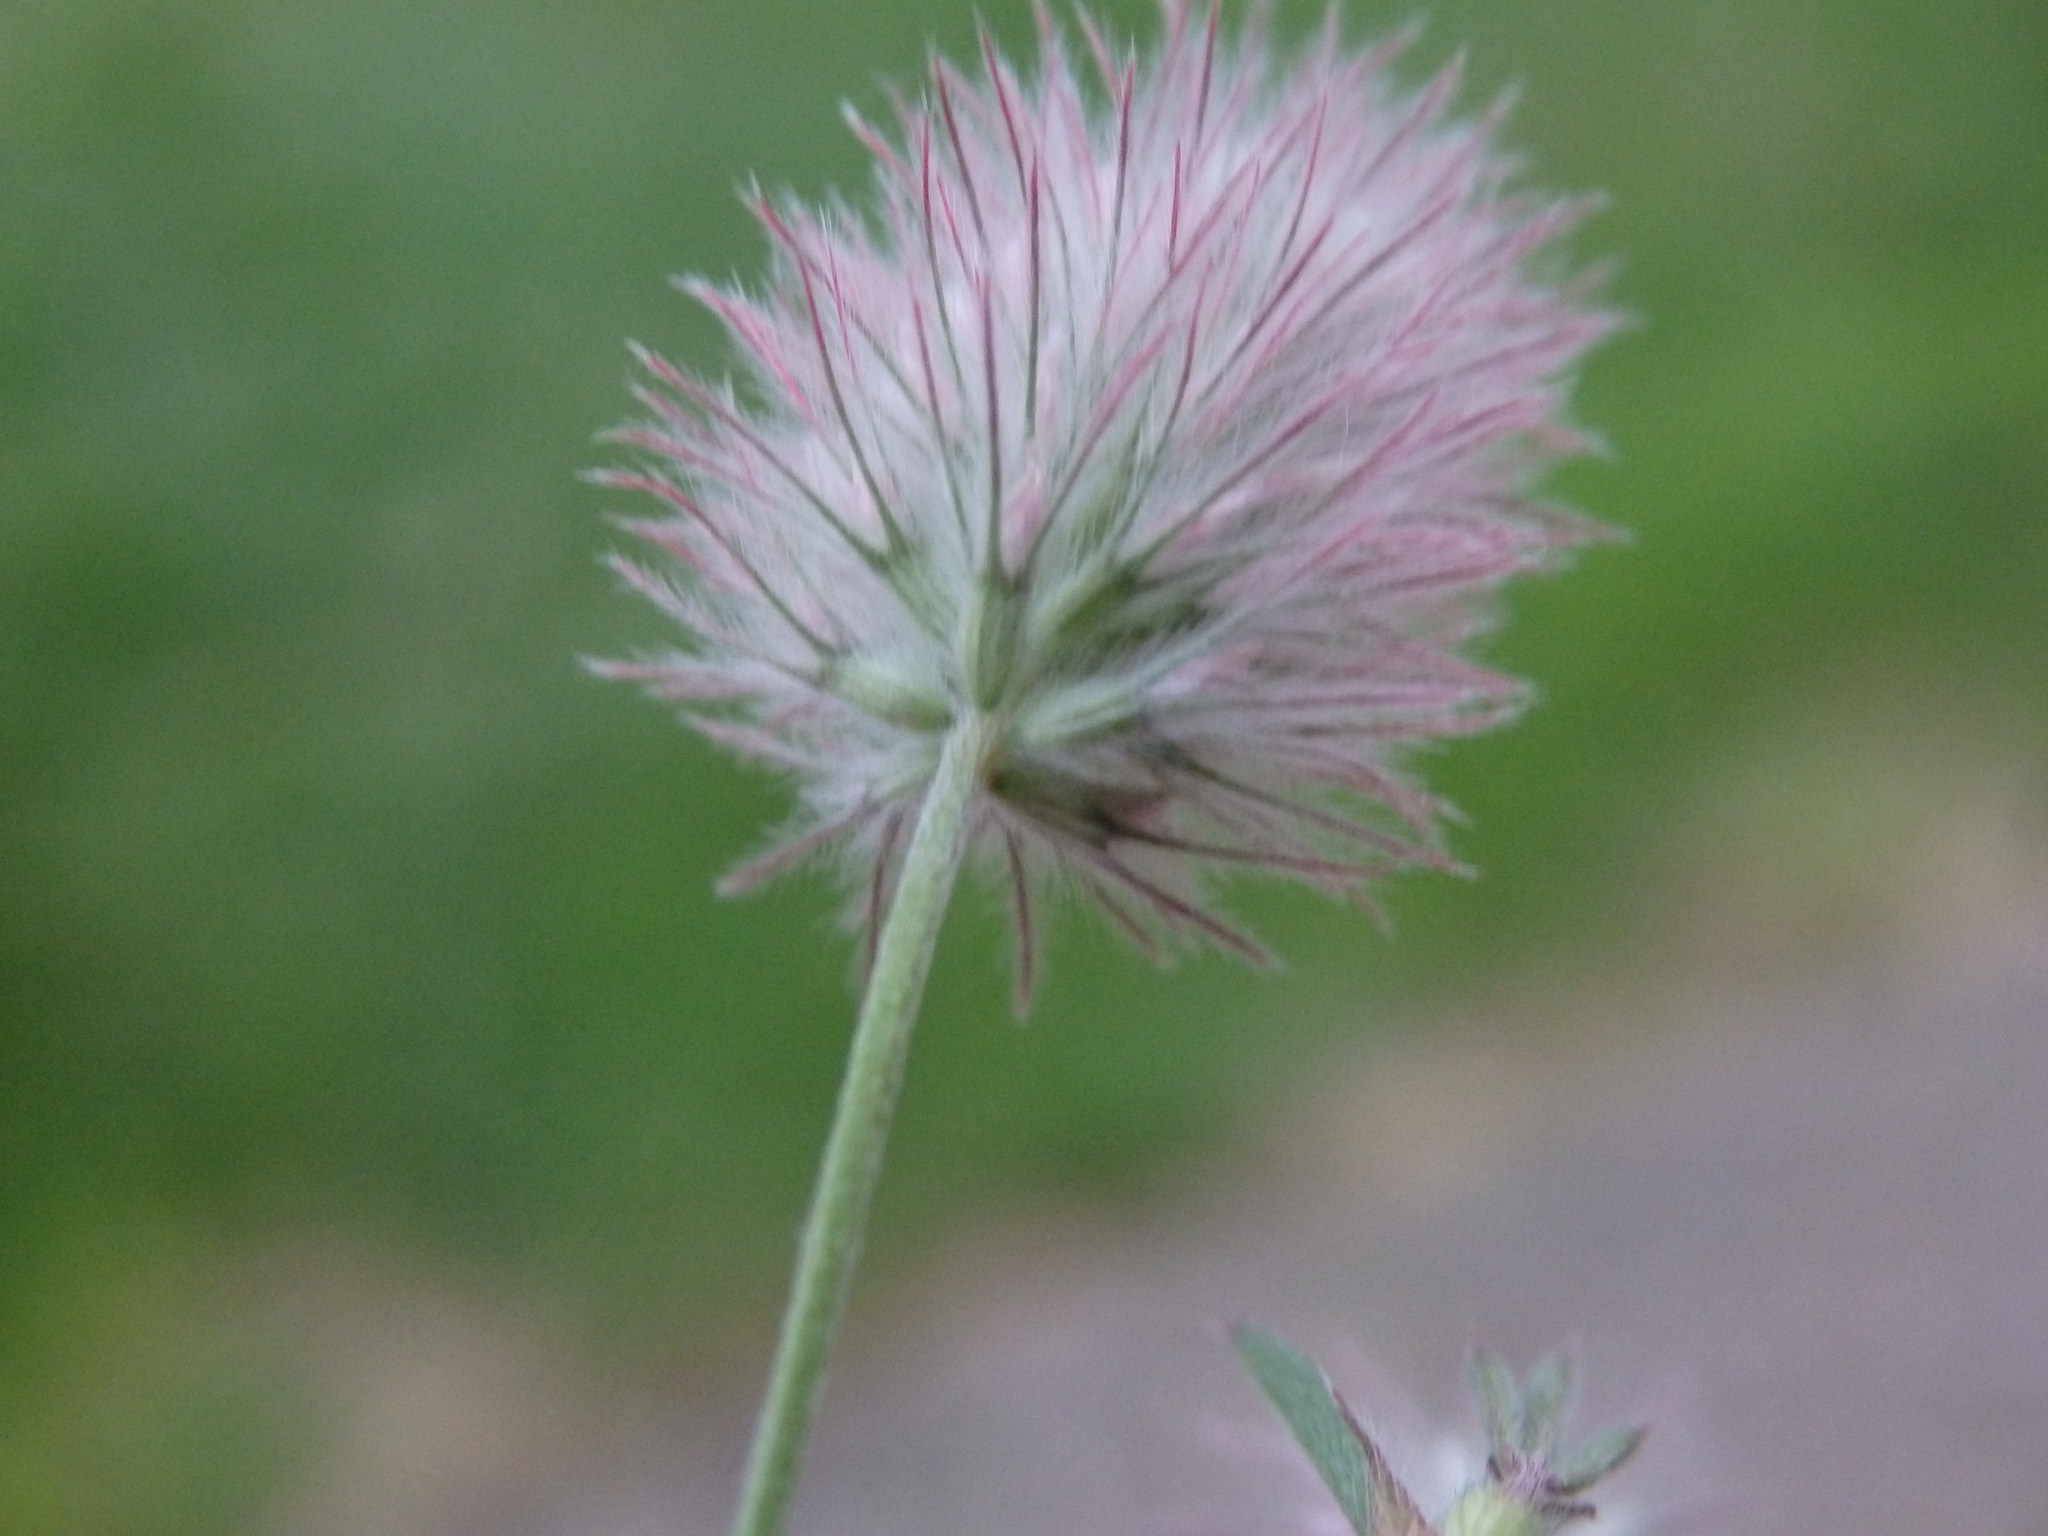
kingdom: Plantae
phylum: Tracheophyta
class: Magnoliopsida
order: Fabales
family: Fabaceae
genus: Trifolium
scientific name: Trifolium arvense
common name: Hare's-foot clover
